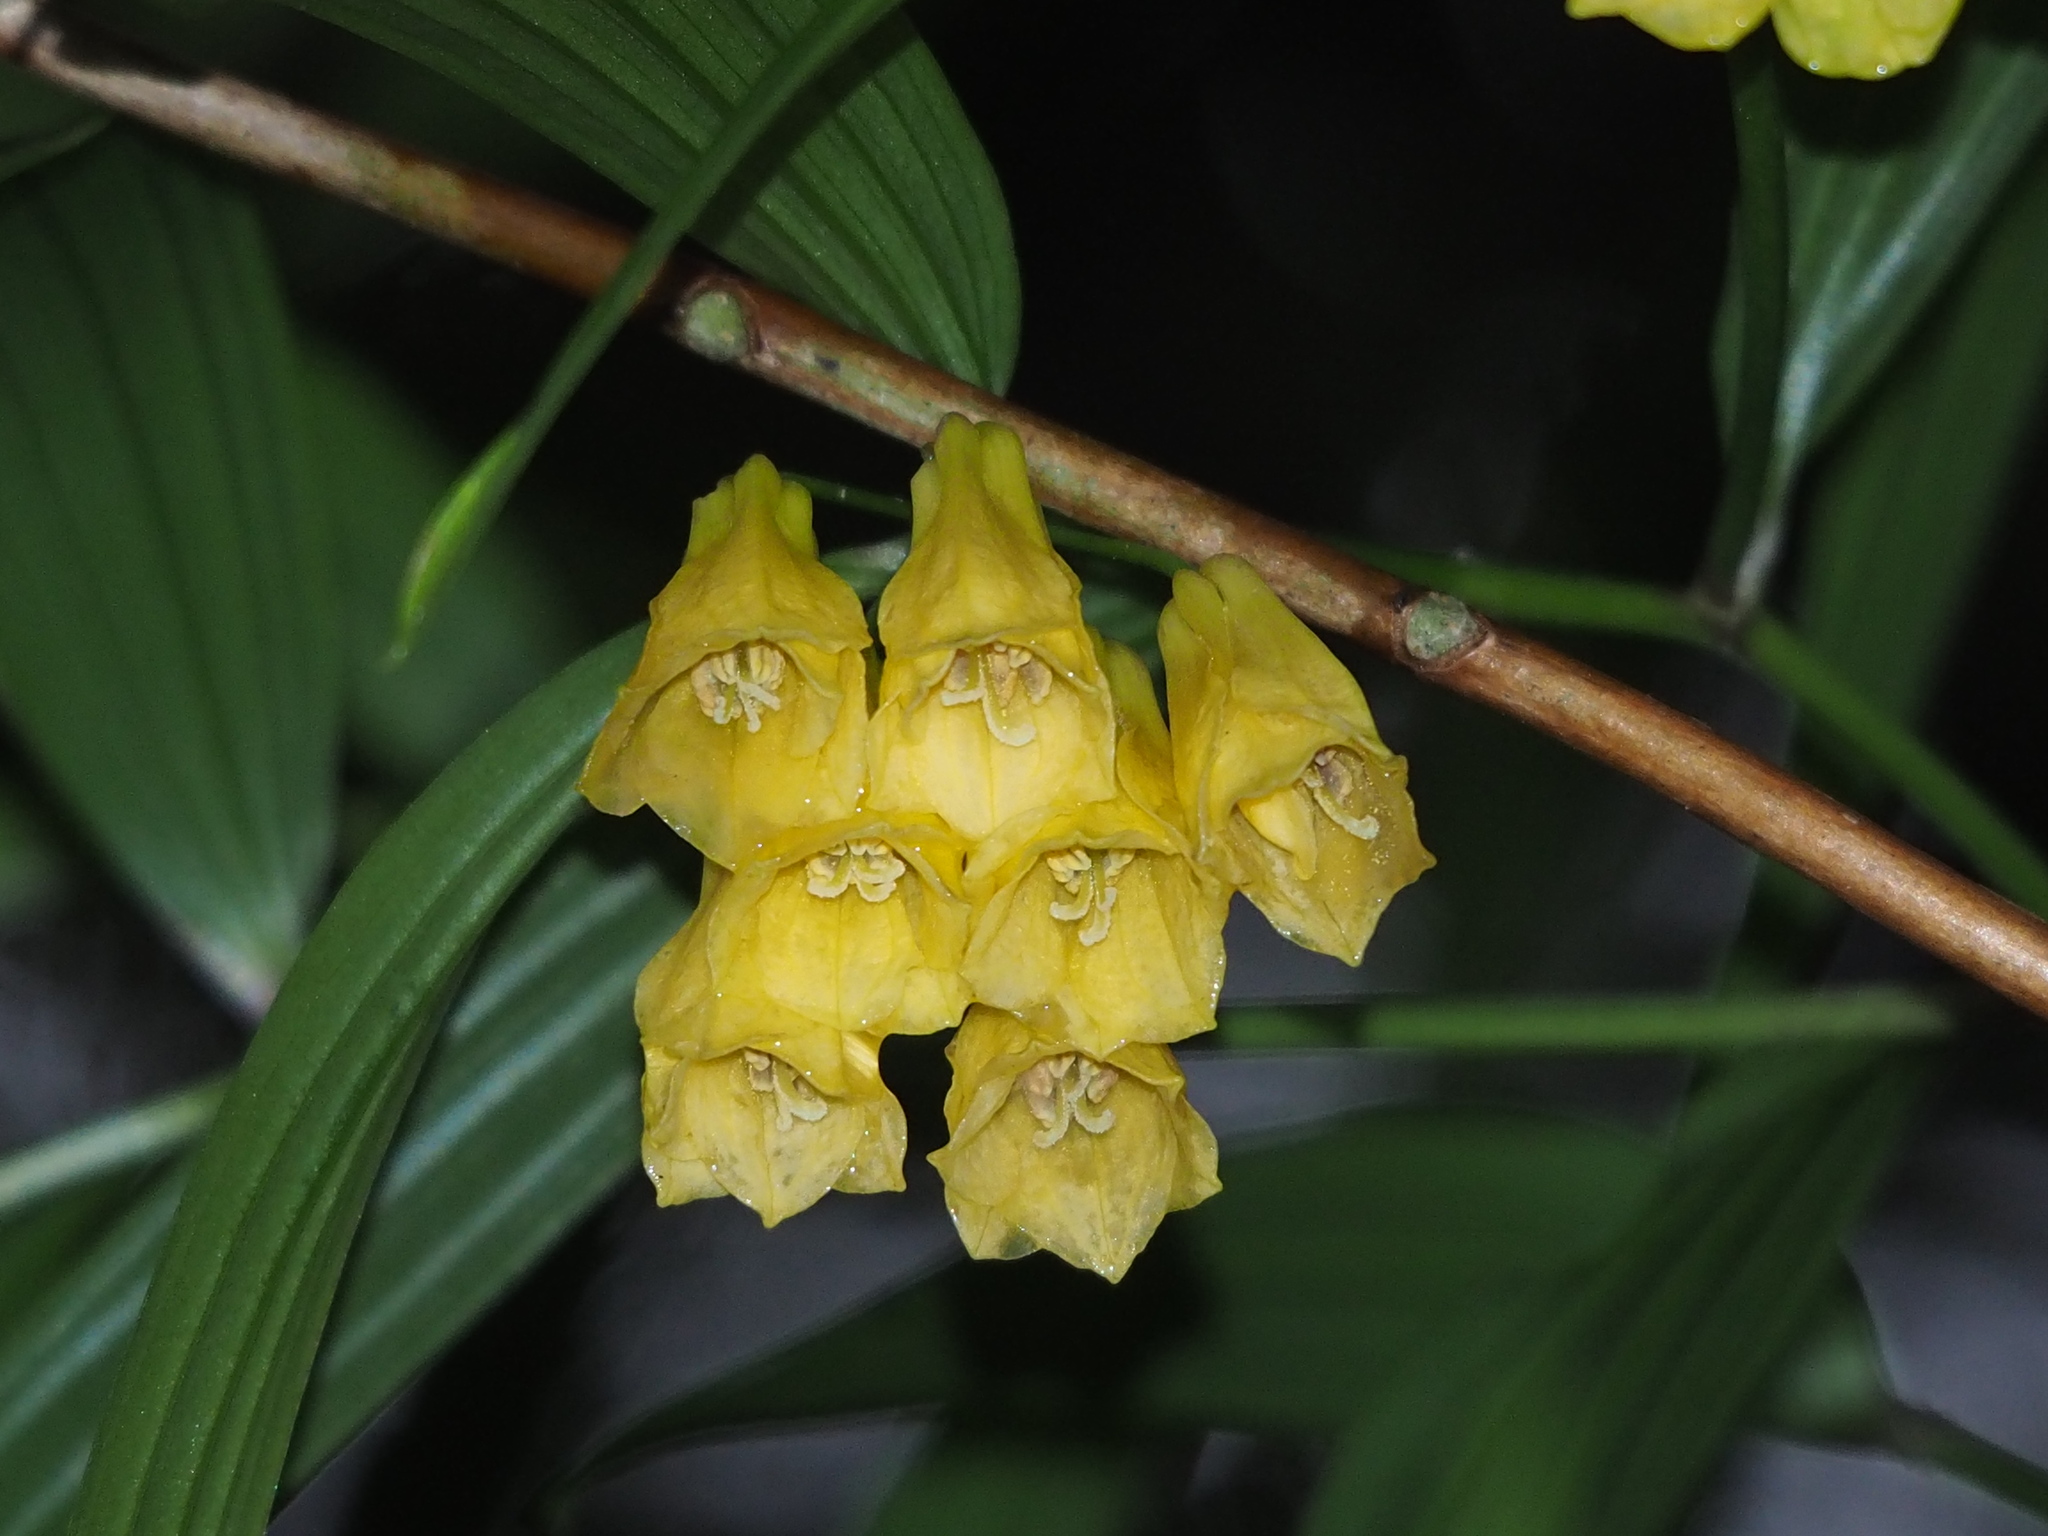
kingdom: Plantae
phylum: Tracheophyta
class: Liliopsida
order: Liliales
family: Colchicaceae
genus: Disporum
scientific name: Disporum shimadae
